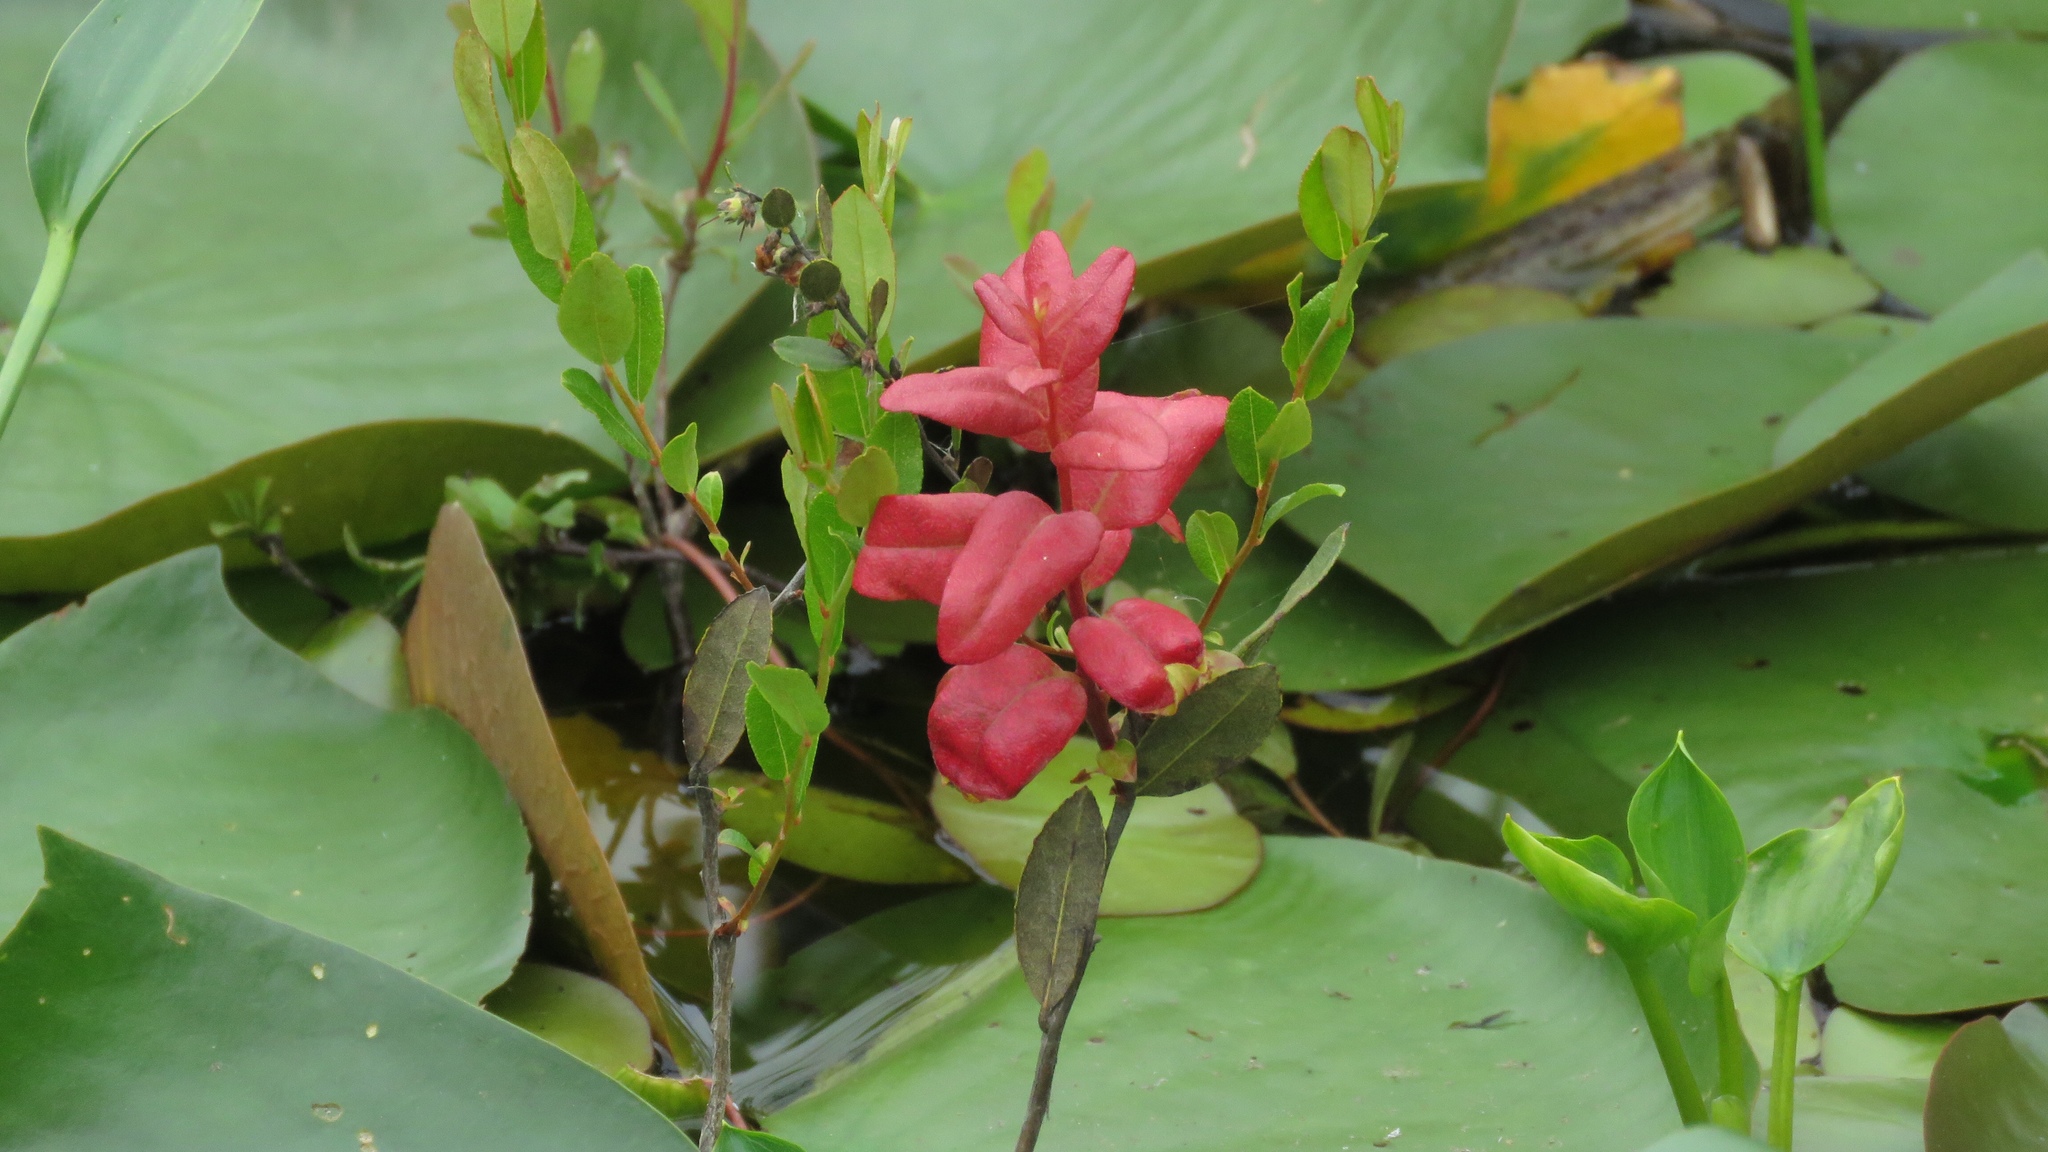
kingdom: Plantae
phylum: Tracheophyta
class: Magnoliopsida
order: Ericales
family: Ericaceae
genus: Chamaedaphne
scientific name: Chamaedaphne calyculata
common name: Leatherleaf
